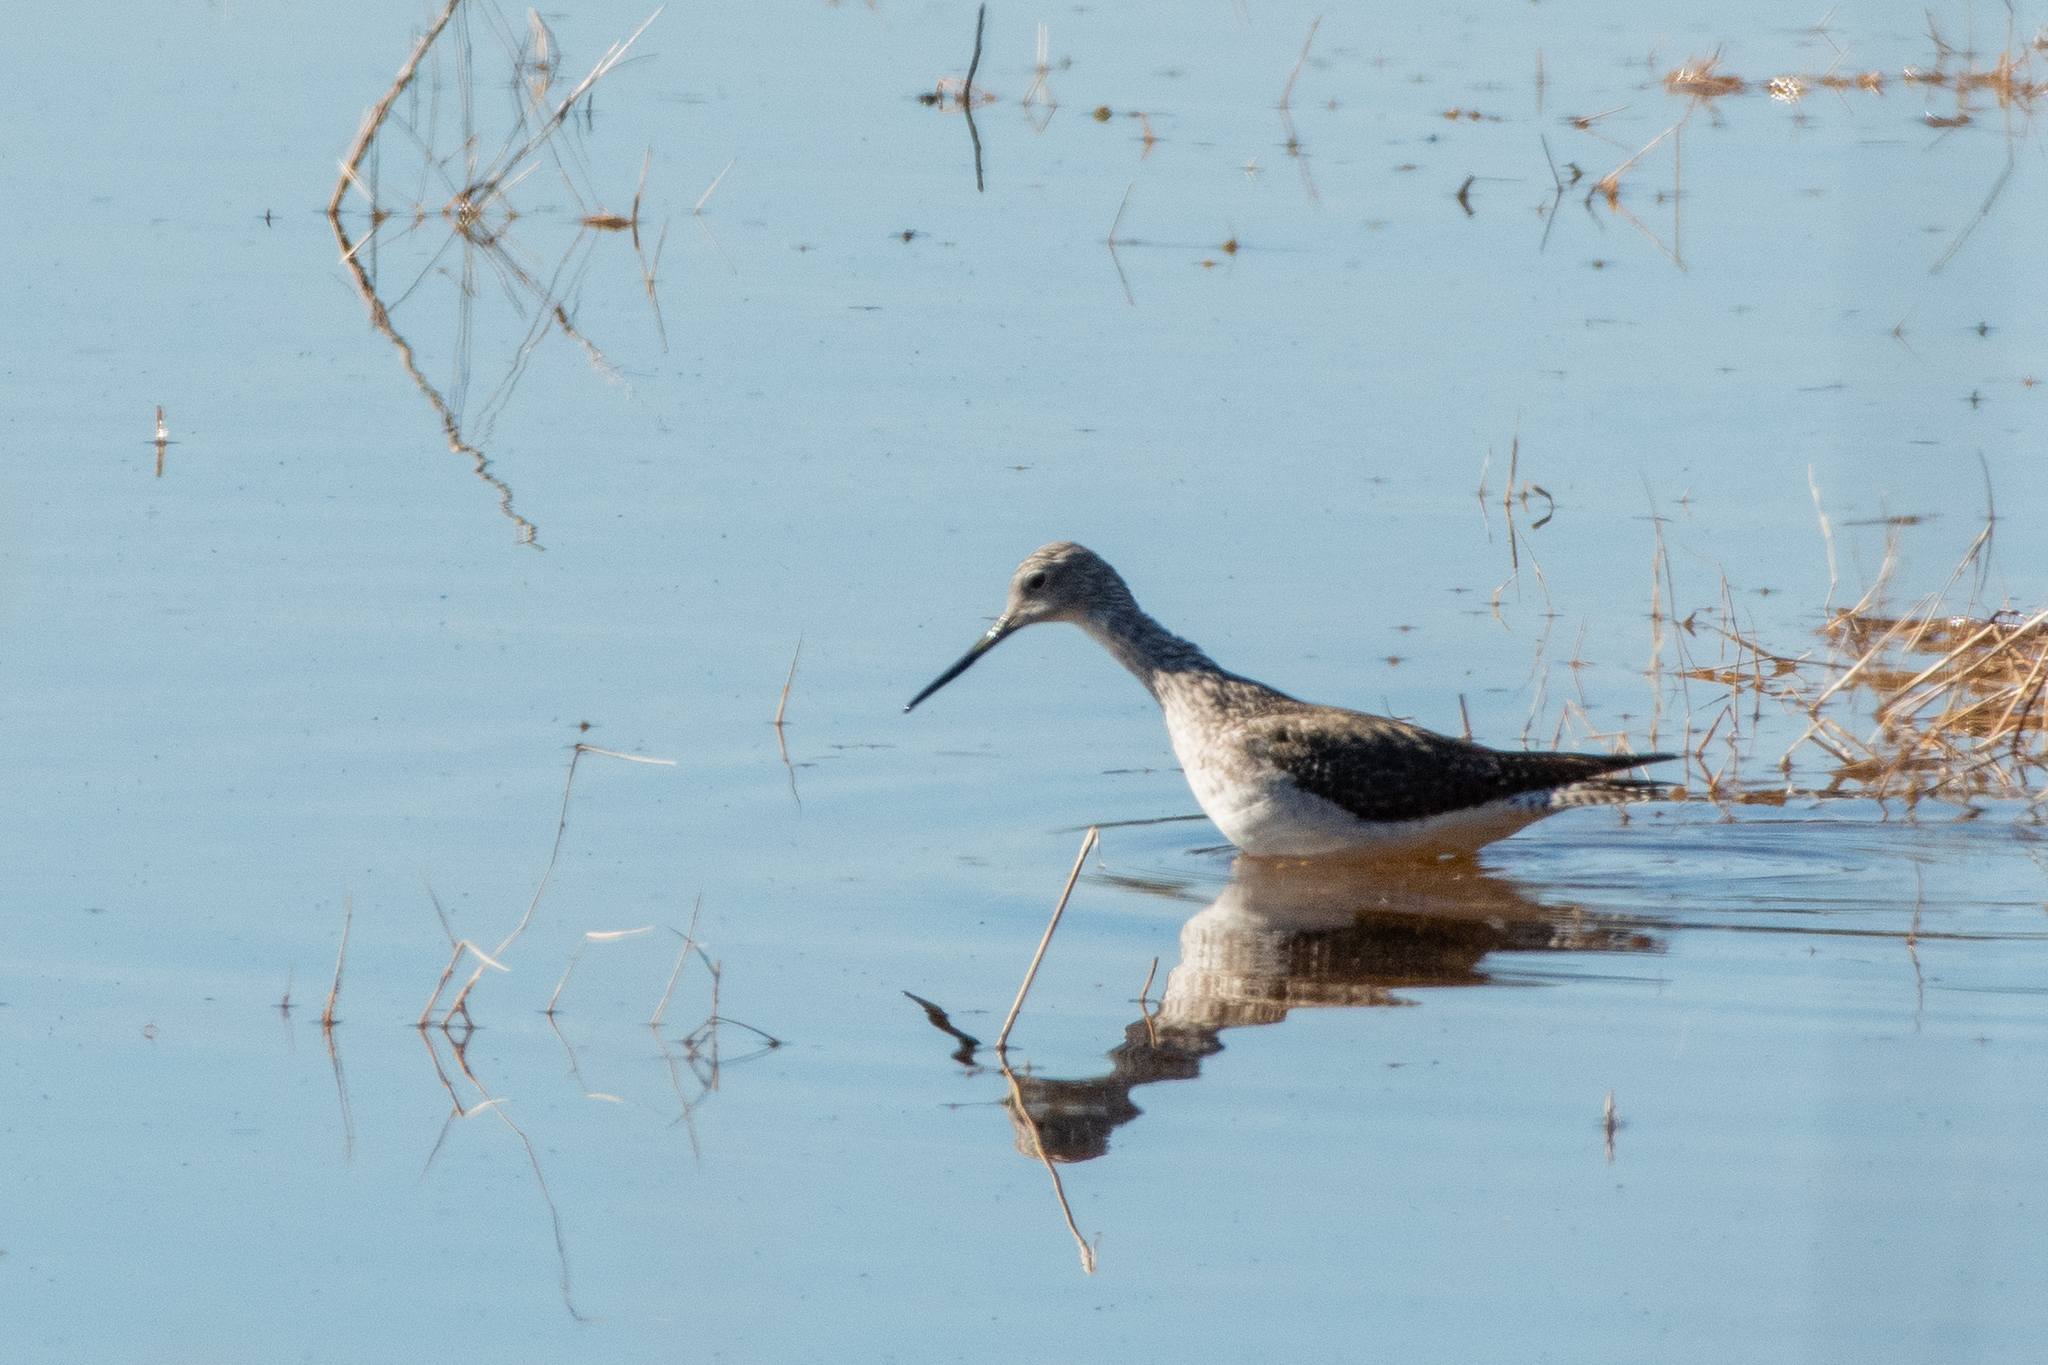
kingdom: Animalia
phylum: Chordata
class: Aves
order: Charadriiformes
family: Scolopacidae
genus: Tringa
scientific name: Tringa melanoleuca
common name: Greater yellowlegs
